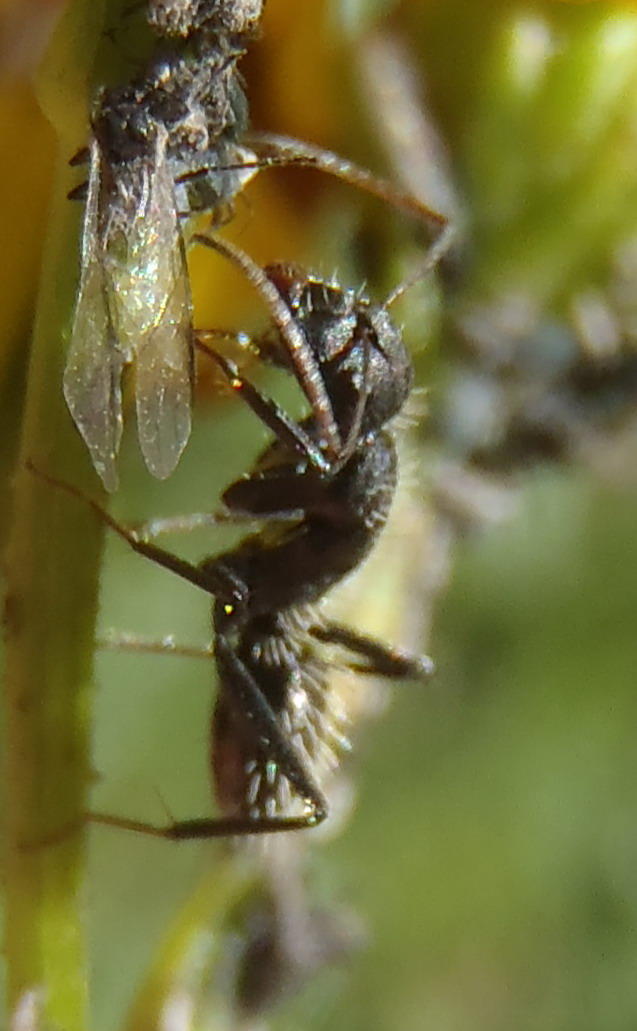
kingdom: Animalia
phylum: Arthropoda
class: Insecta
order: Hymenoptera
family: Formicidae
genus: Camponotus
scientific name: Camponotus niveosetosus
